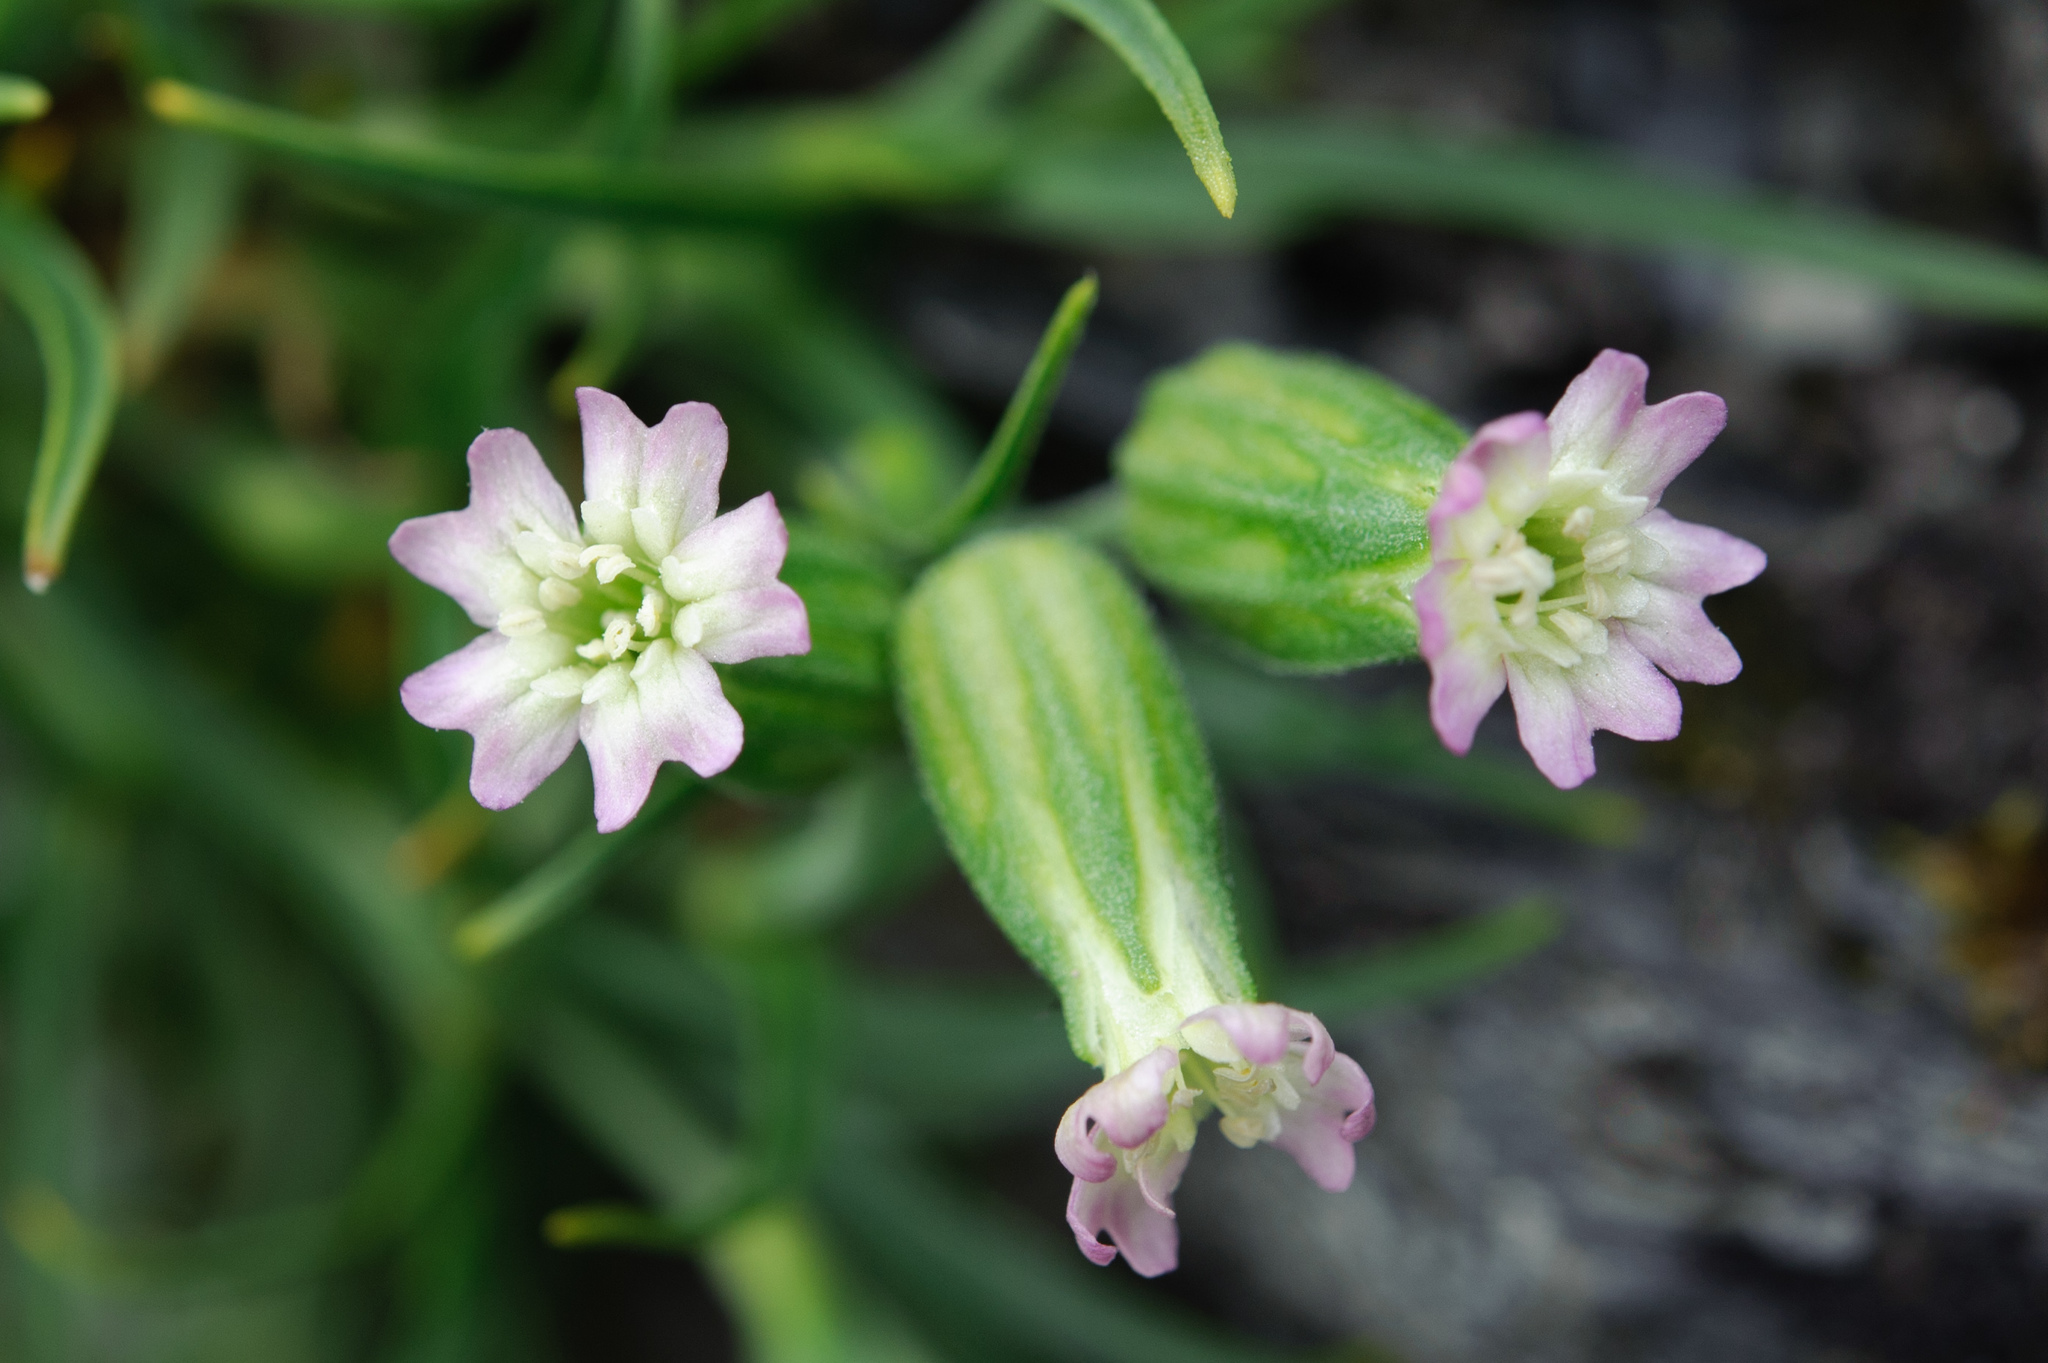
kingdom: Plantae
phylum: Tracheophyta
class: Magnoliopsida
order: Caryophyllales
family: Caryophyllaceae
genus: Silene
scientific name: Silene ohwii
